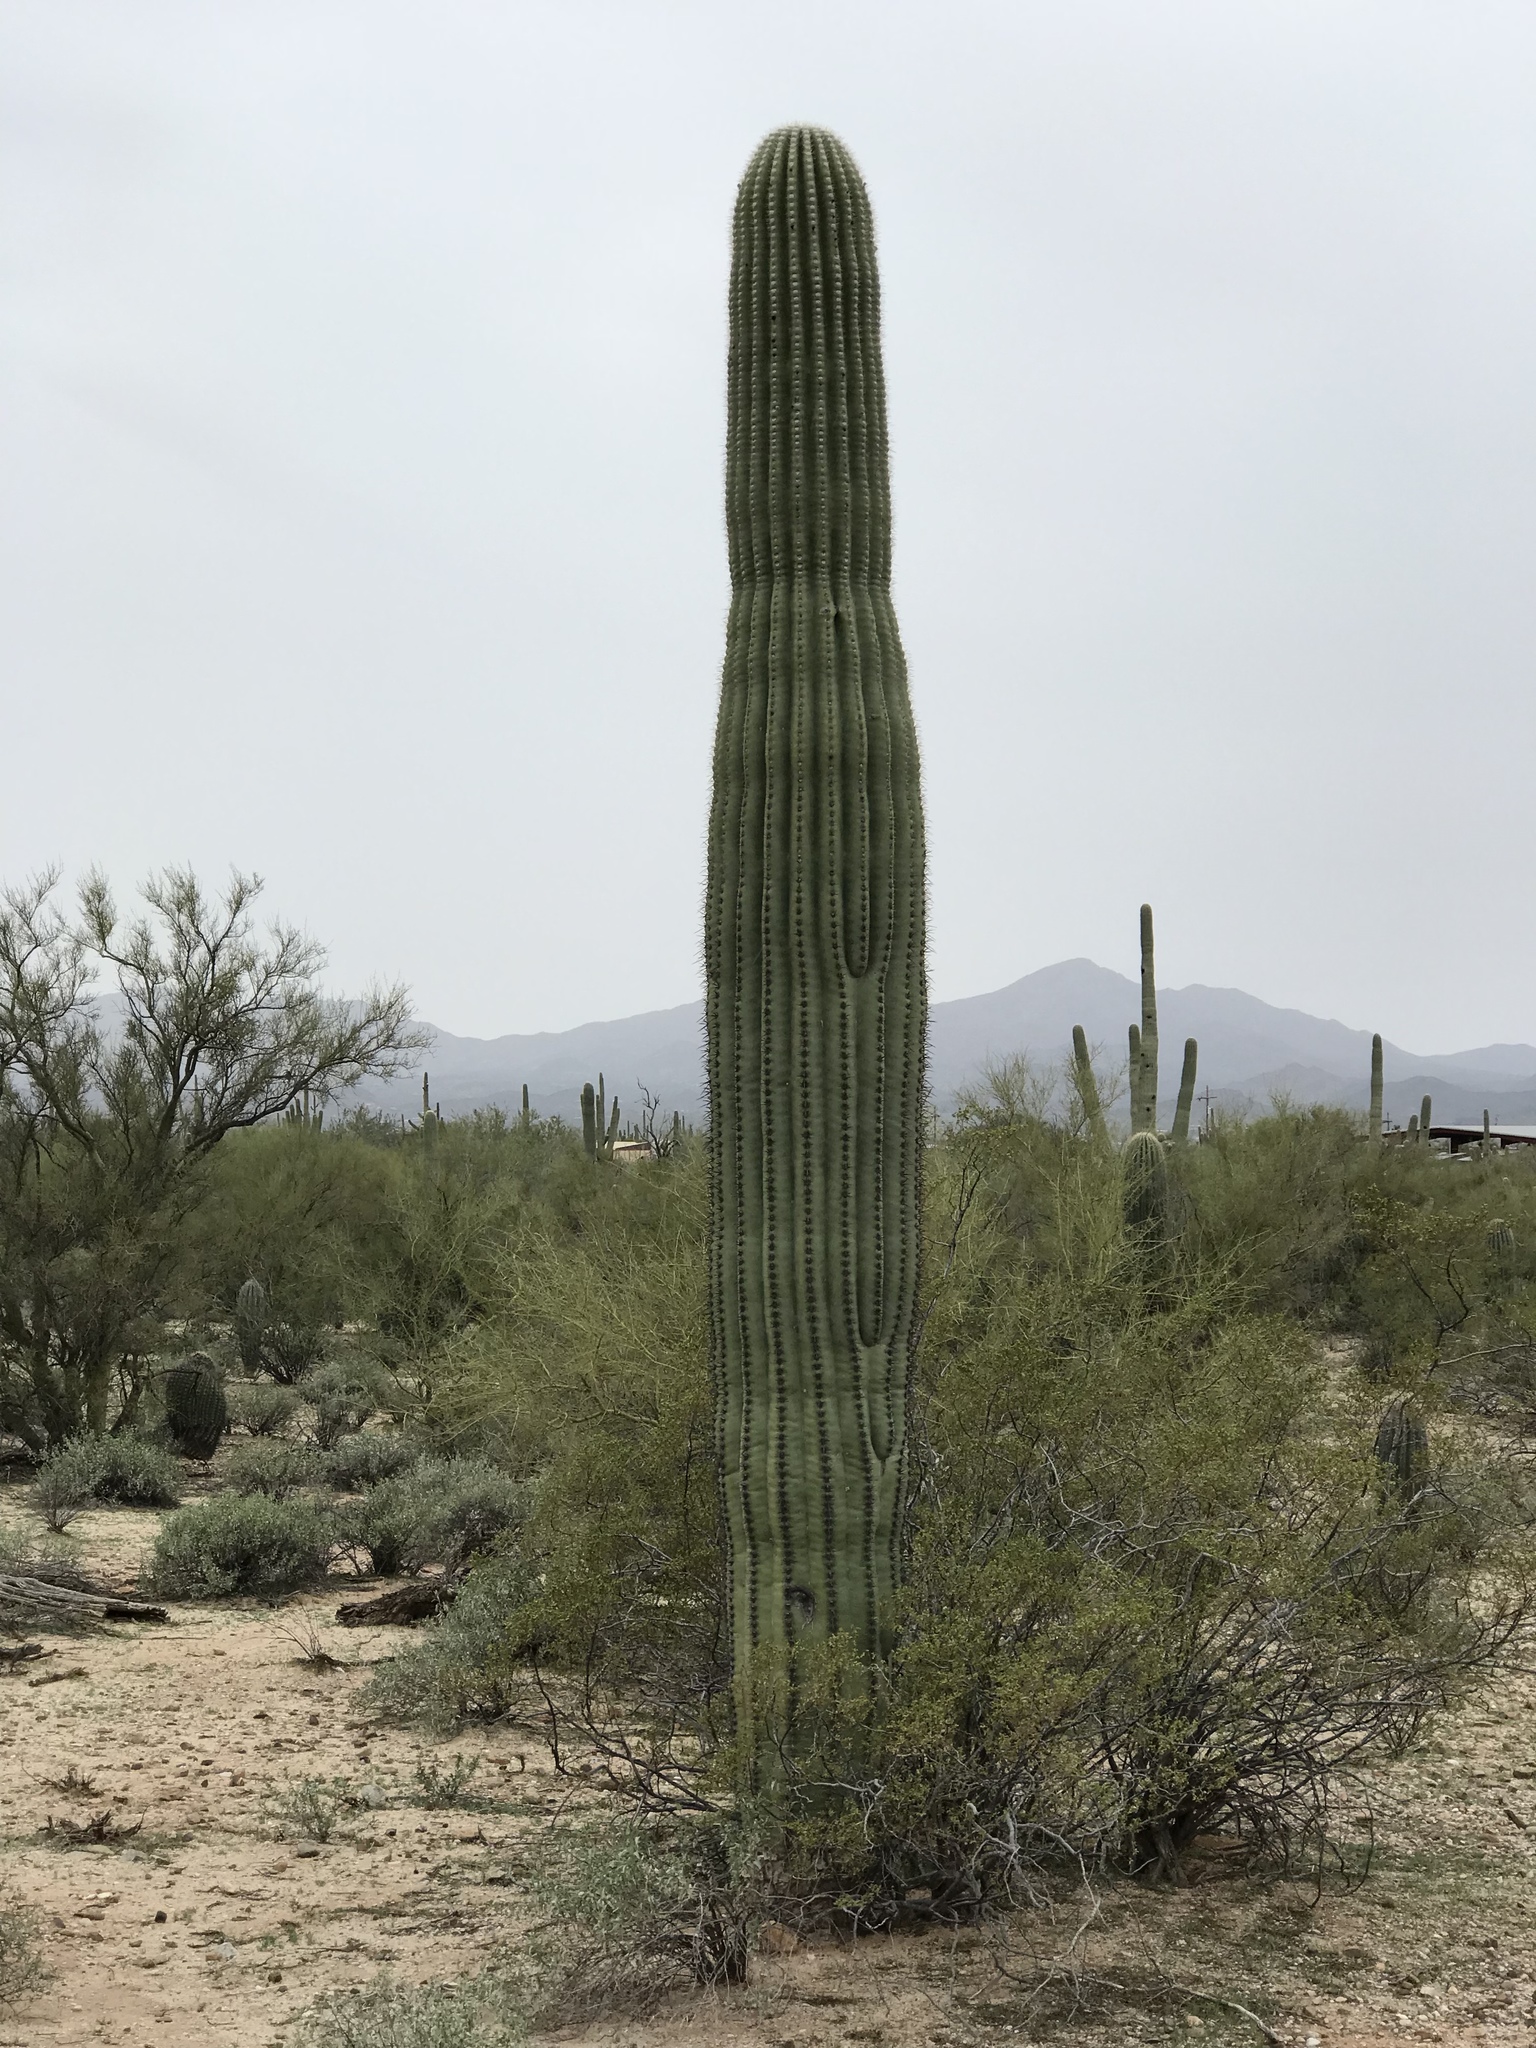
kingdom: Plantae
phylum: Tracheophyta
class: Magnoliopsida
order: Caryophyllales
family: Cactaceae
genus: Carnegiea
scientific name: Carnegiea gigantea
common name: Saguaro
